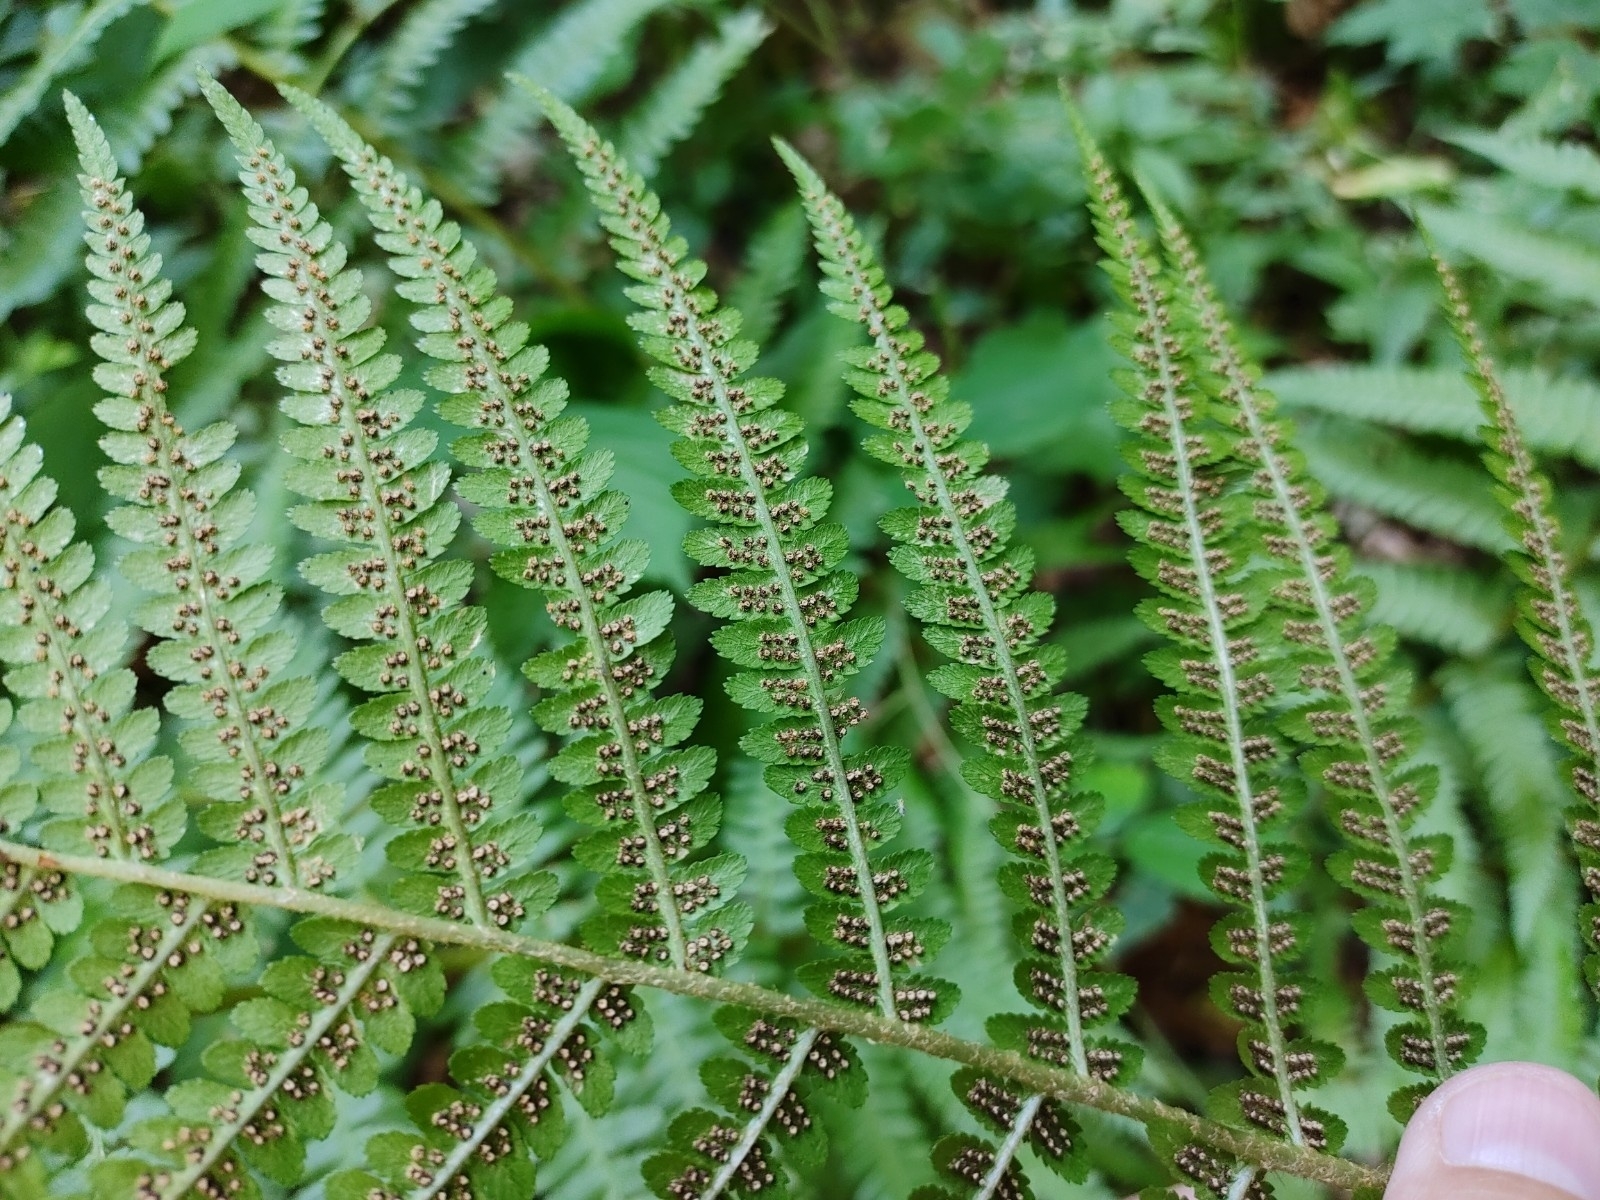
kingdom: Plantae
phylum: Tracheophyta
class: Polypodiopsida
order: Polypodiales
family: Dryopteridaceae
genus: Dryopteris
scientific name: Dryopteris filix-mas
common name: Male fern
